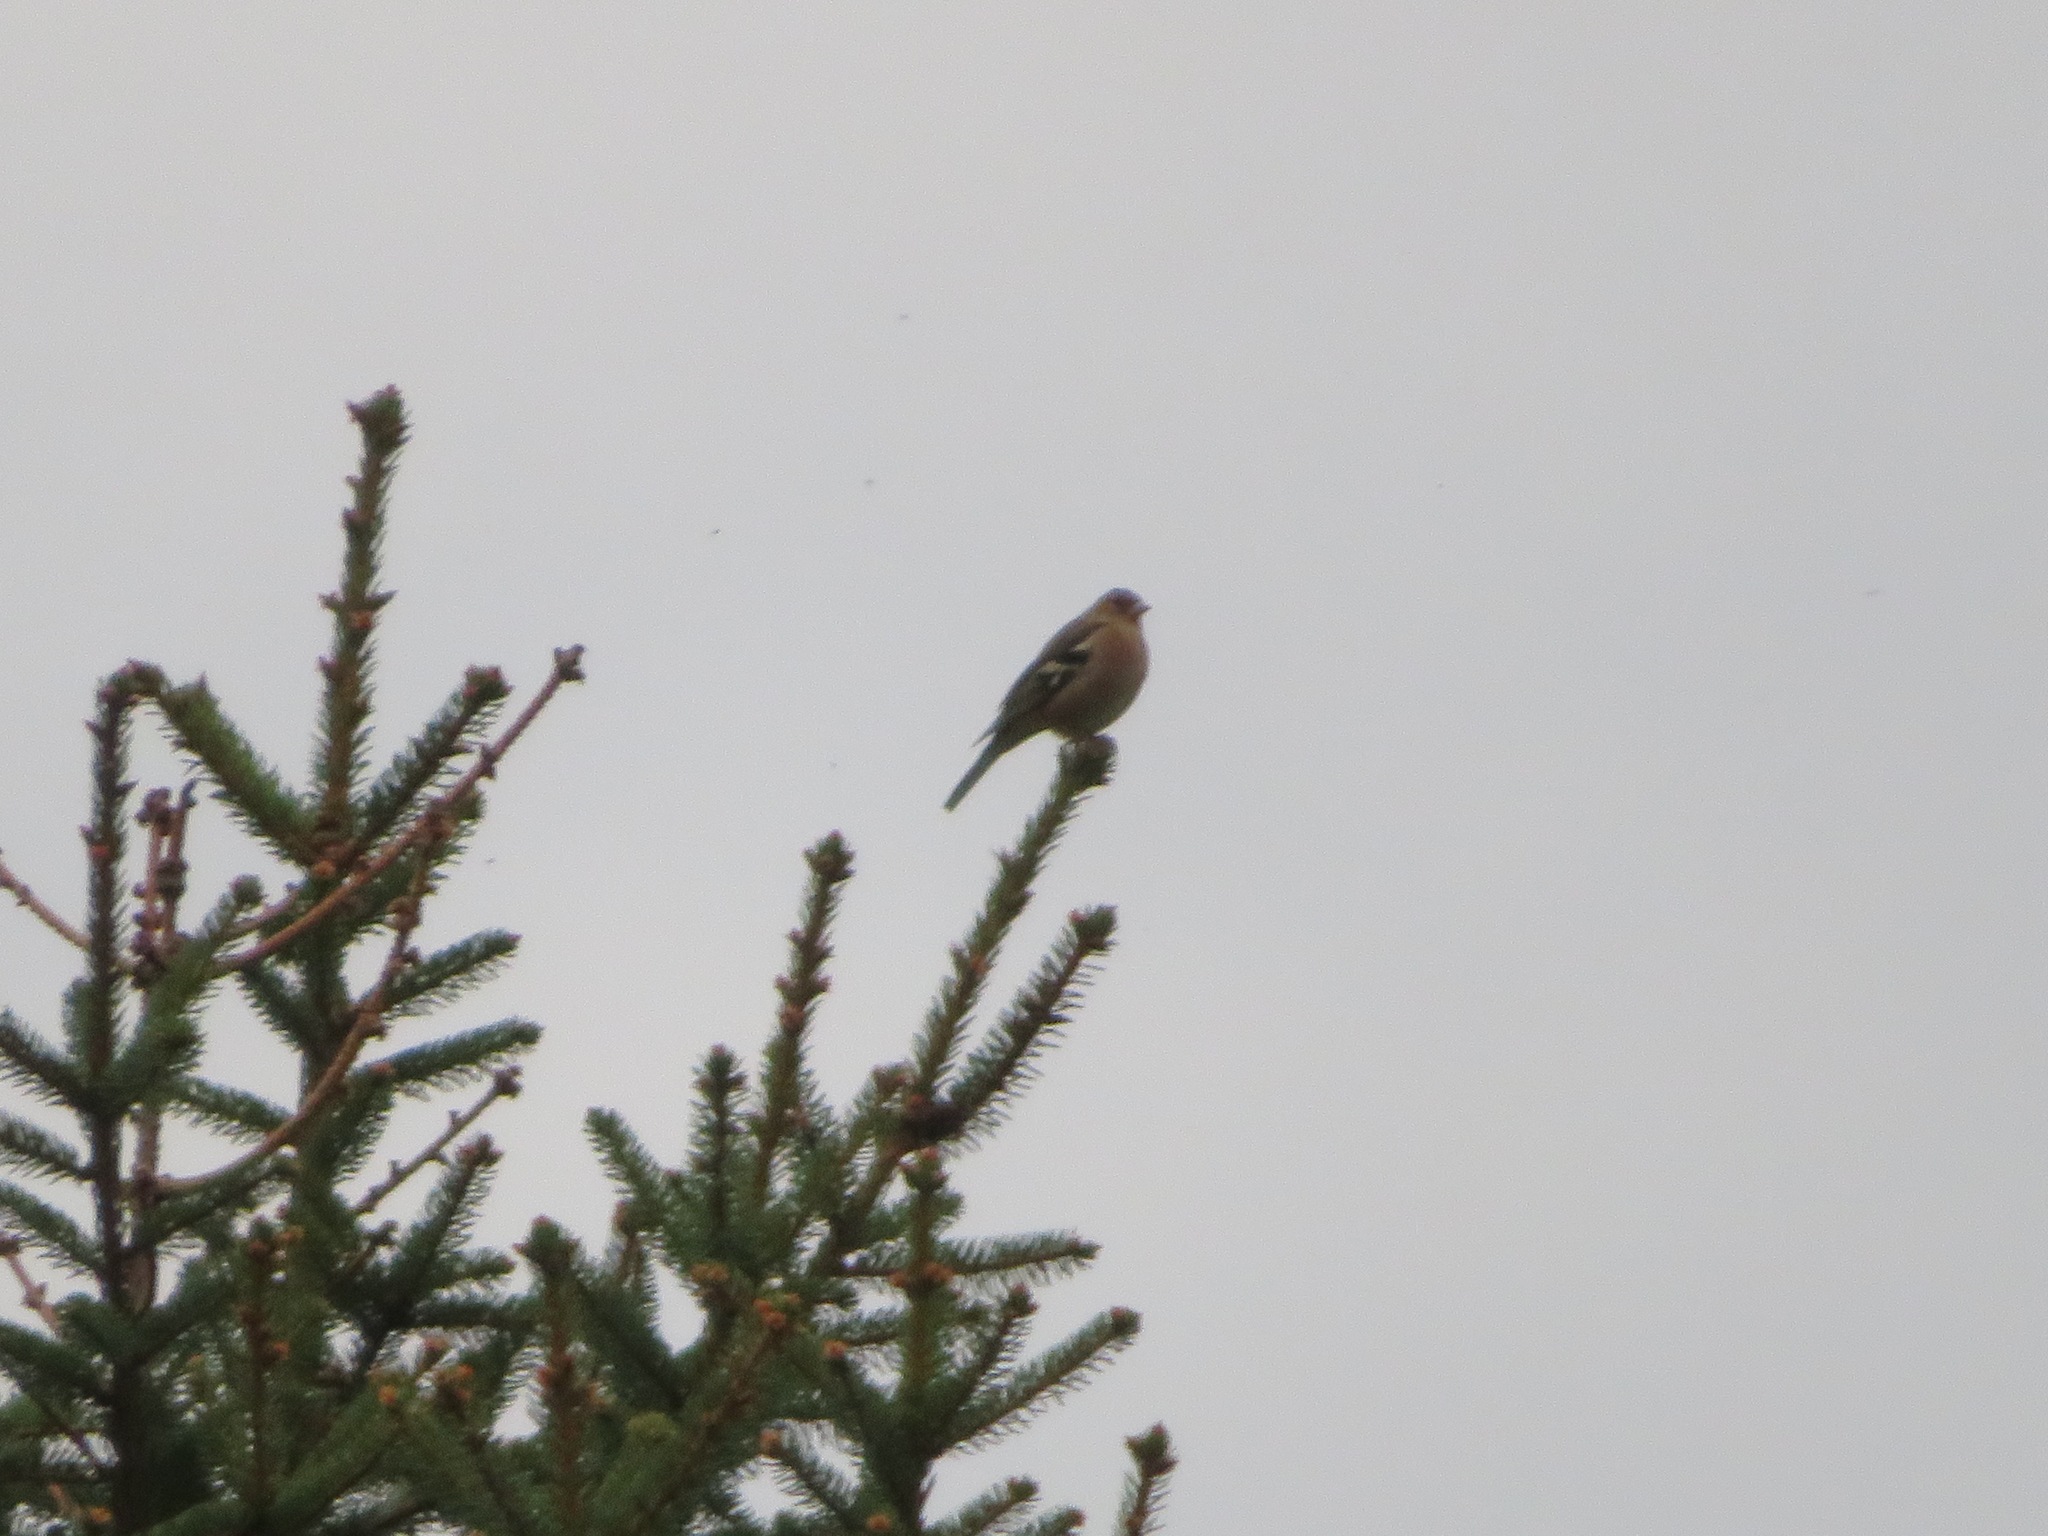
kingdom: Animalia
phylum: Chordata
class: Aves
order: Passeriformes
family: Fringillidae
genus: Fringilla
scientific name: Fringilla coelebs
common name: Common chaffinch
